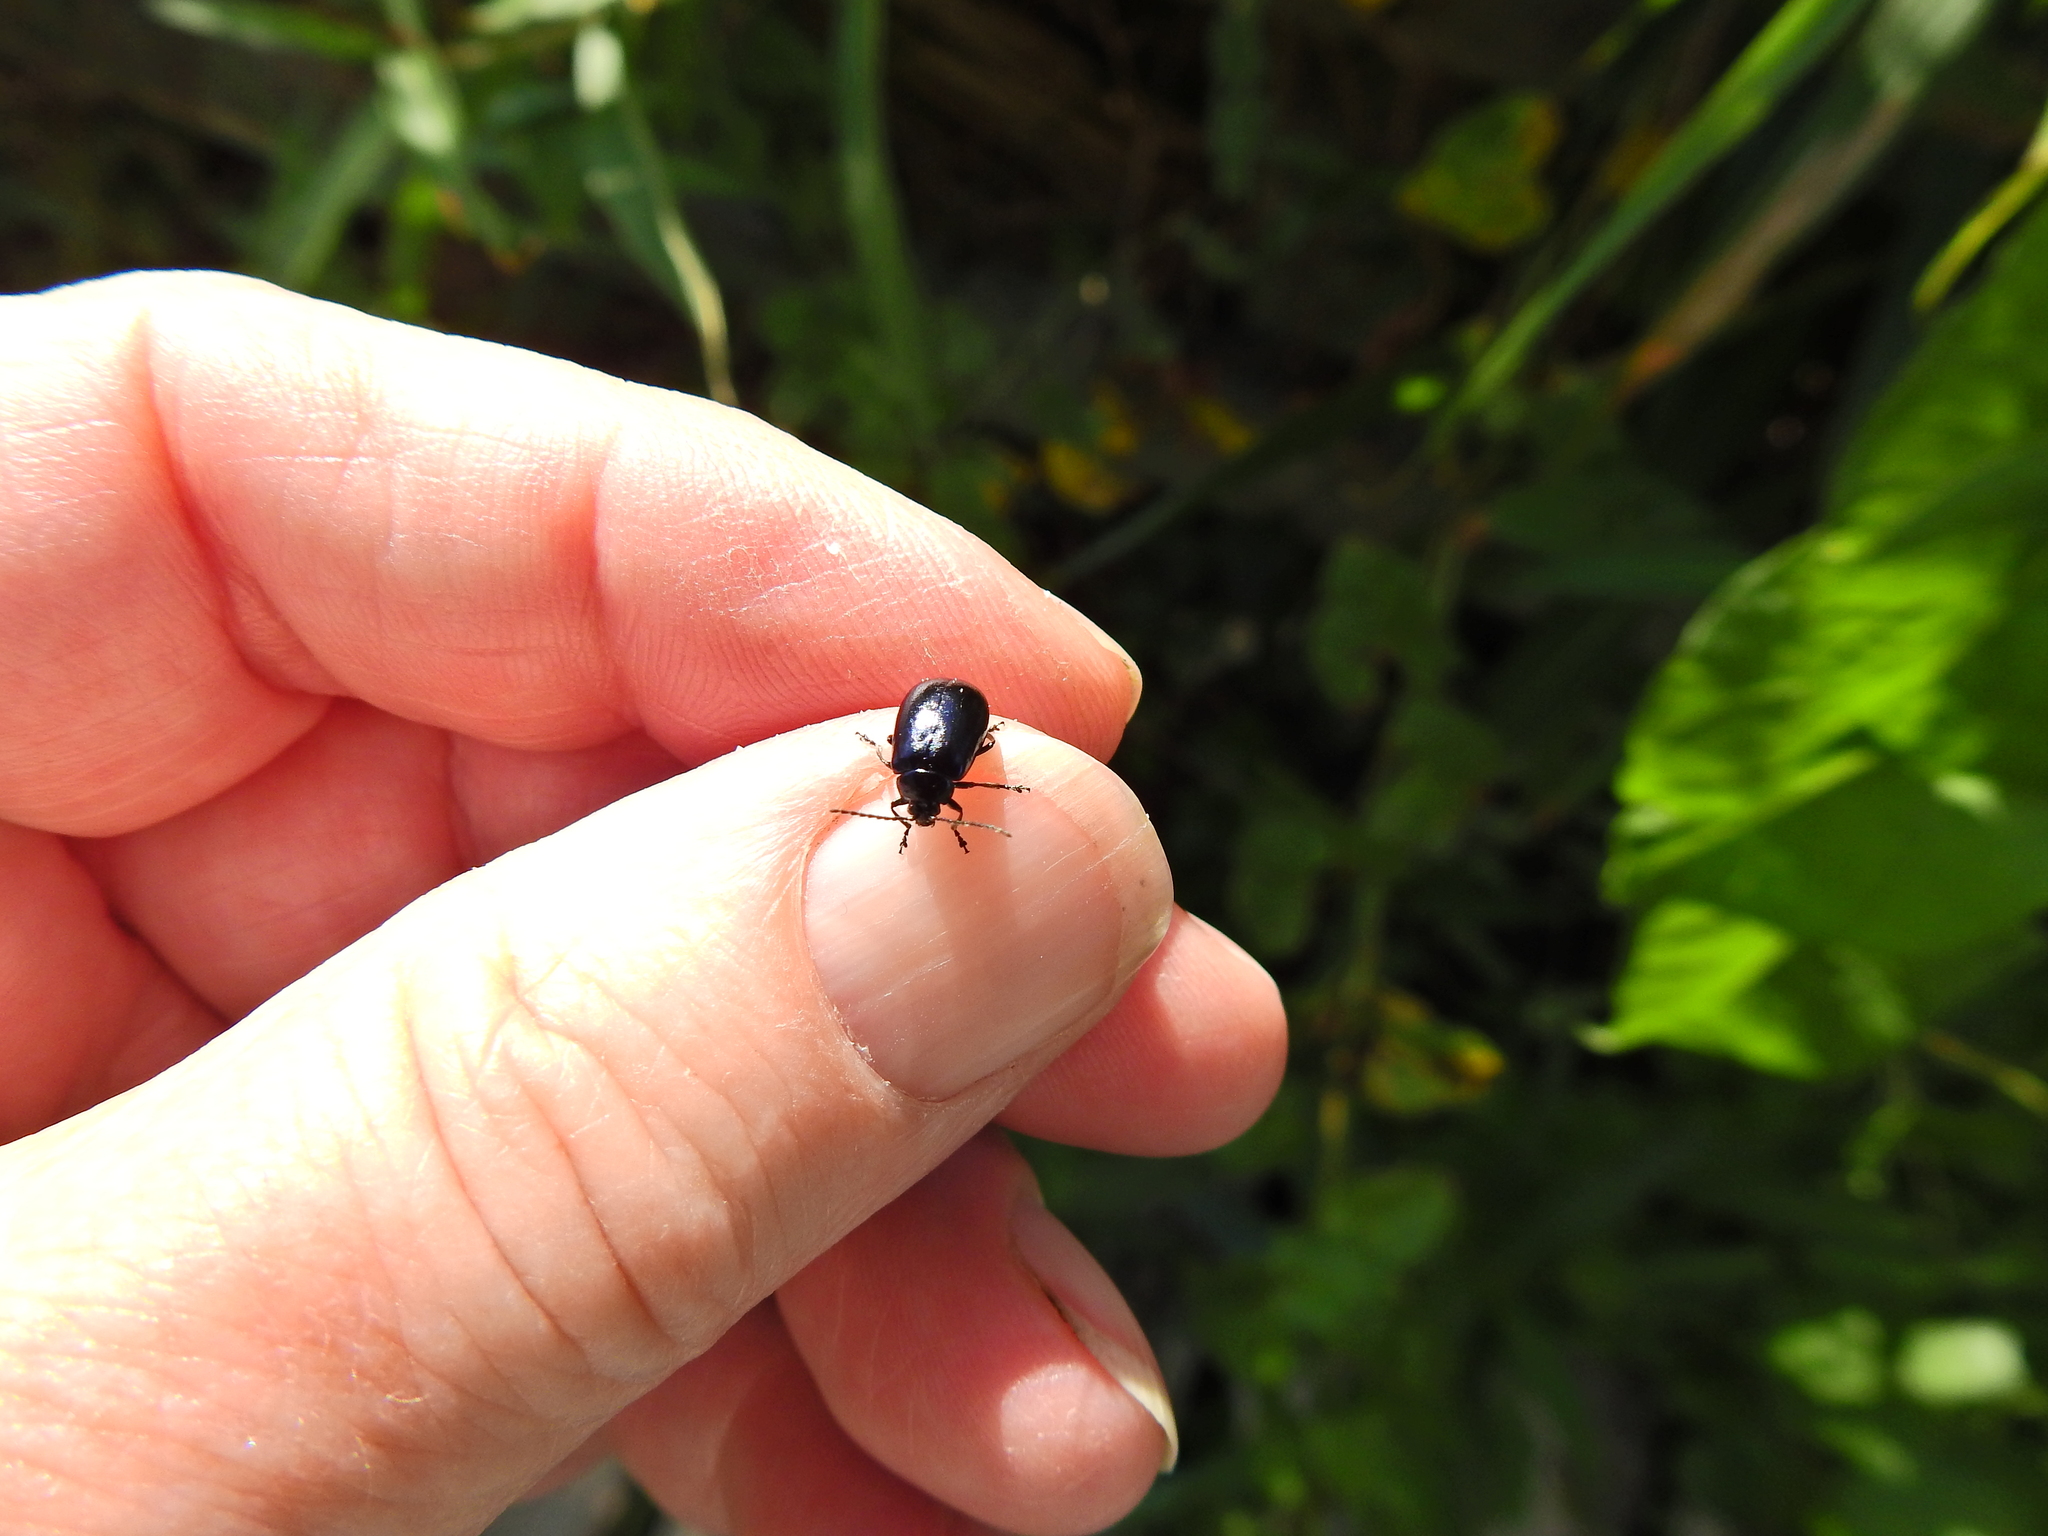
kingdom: Animalia
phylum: Arthropoda
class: Insecta
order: Coleoptera
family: Chrysomelidae
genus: Agelastica
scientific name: Agelastica alni
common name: Alder leaf beetle
